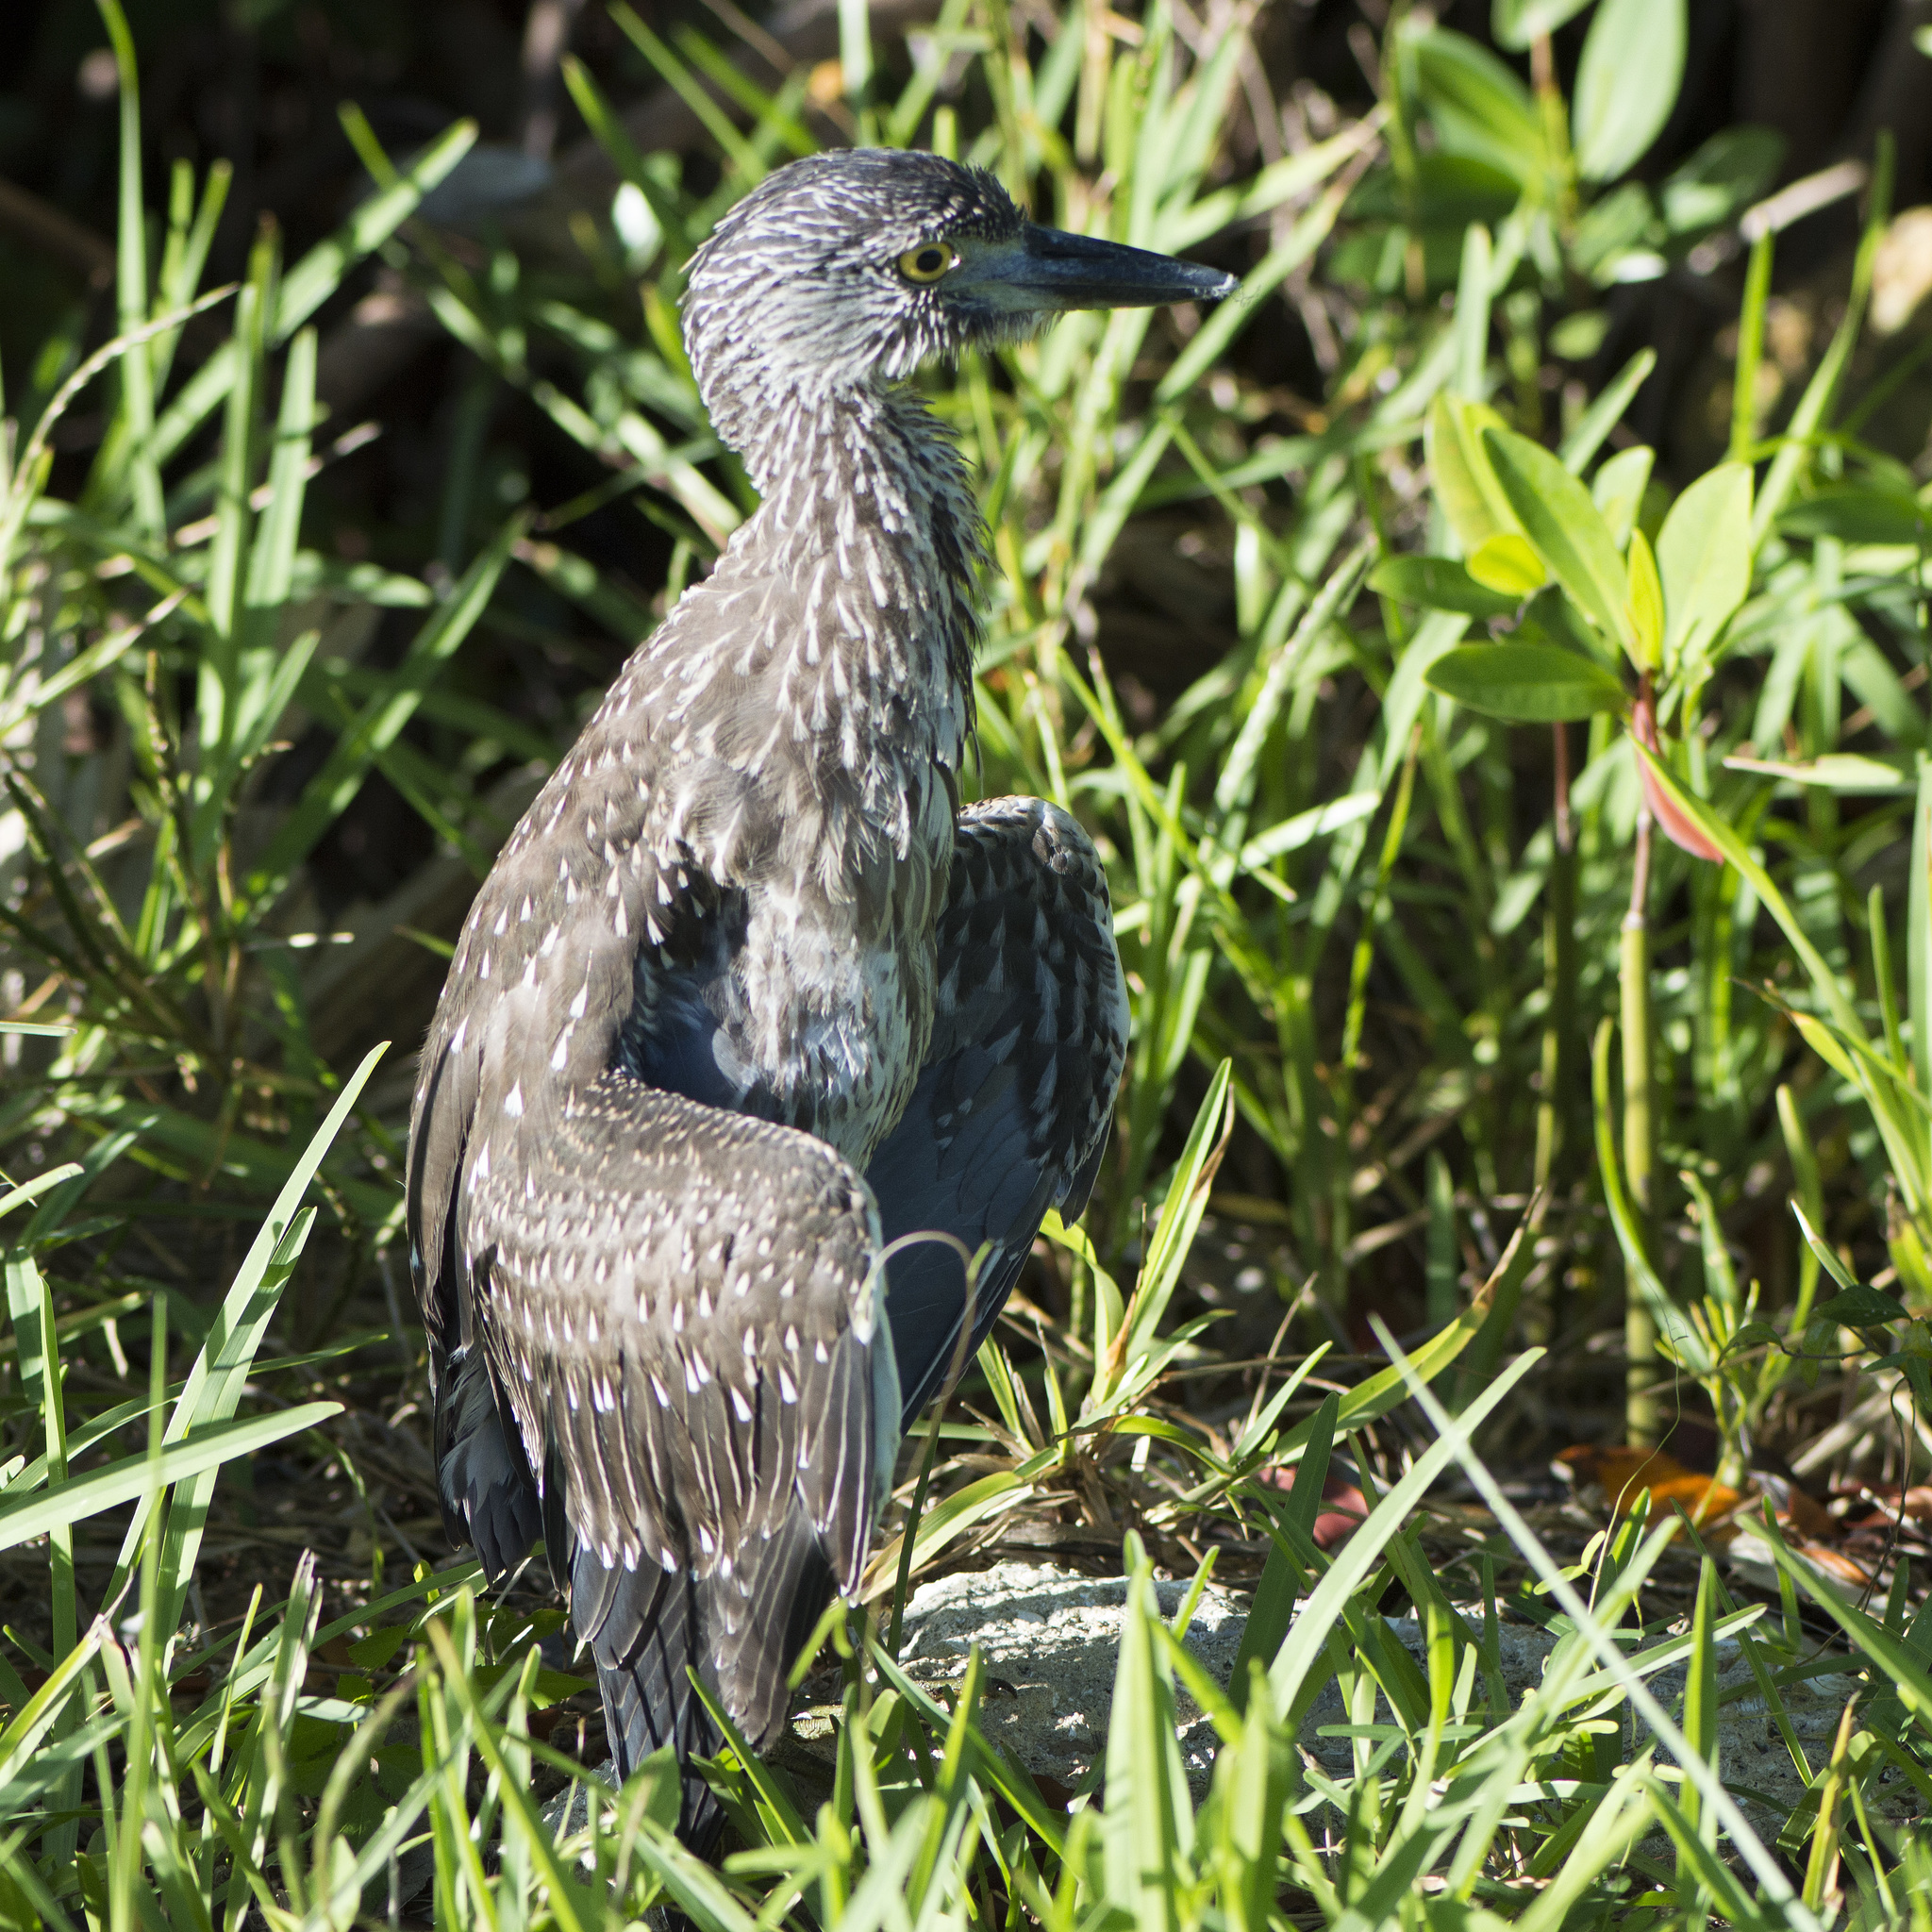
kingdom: Animalia
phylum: Chordata
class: Aves
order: Pelecaniformes
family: Ardeidae
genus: Nyctanassa
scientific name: Nyctanassa violacea
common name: Yellow-crowned night heron
